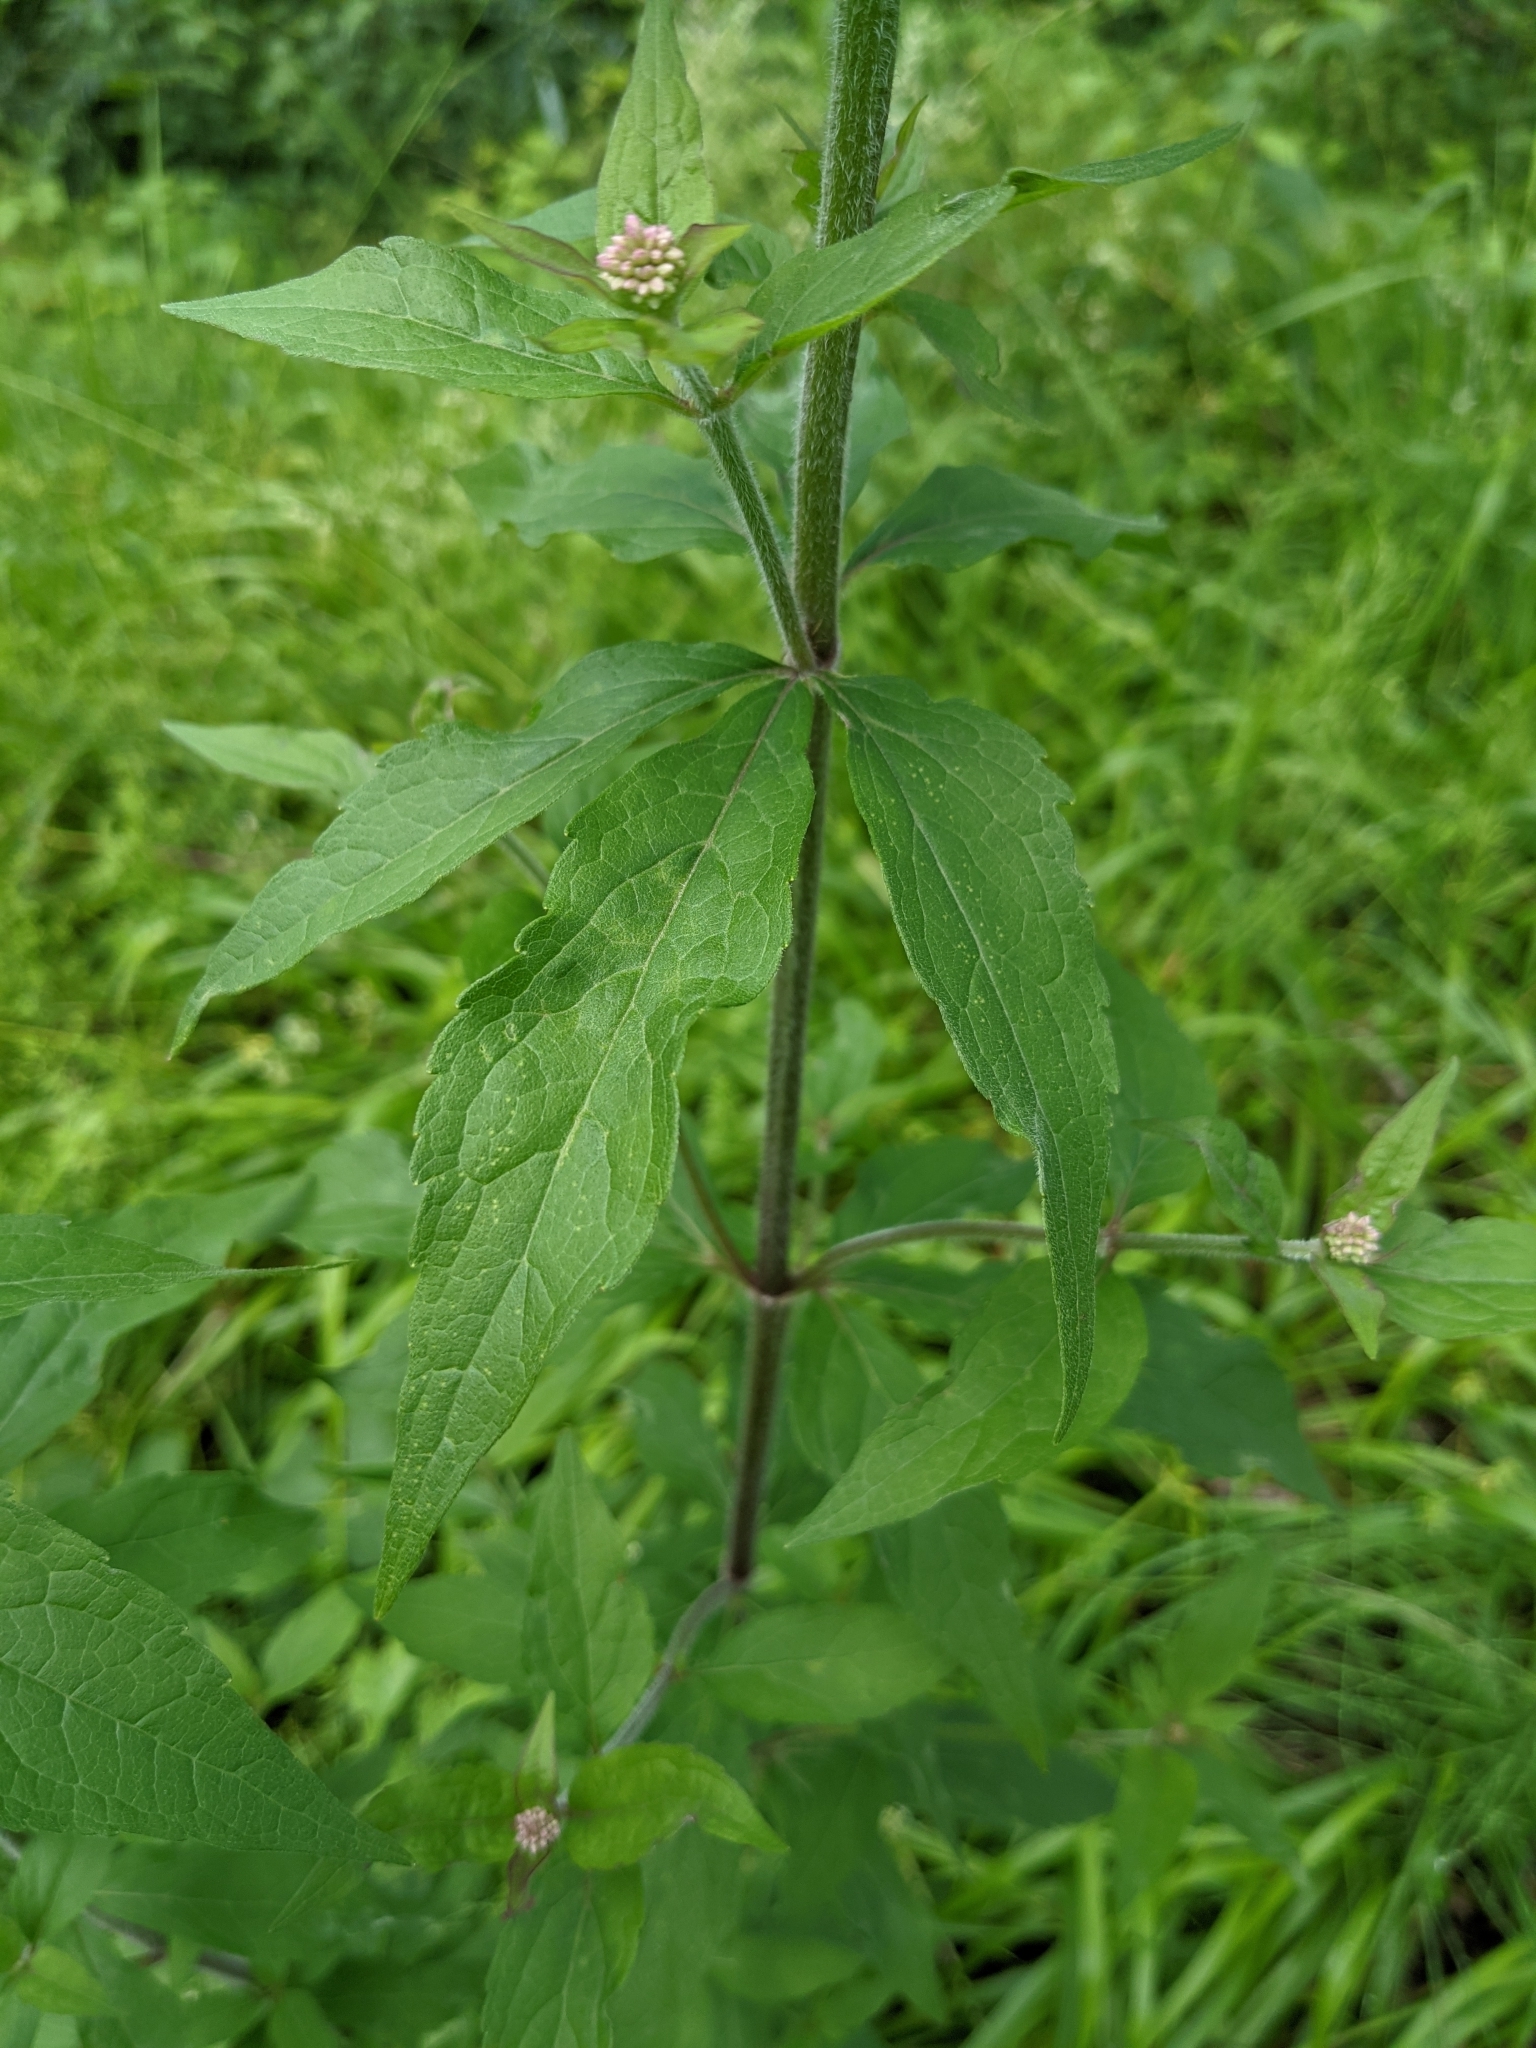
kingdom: Plantae
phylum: Tracheophyta
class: Magnoliopsida
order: Asterales
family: Asteraceae
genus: Eupatorium
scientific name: Eupatorium cannabinum
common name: Hemp-agrimony
